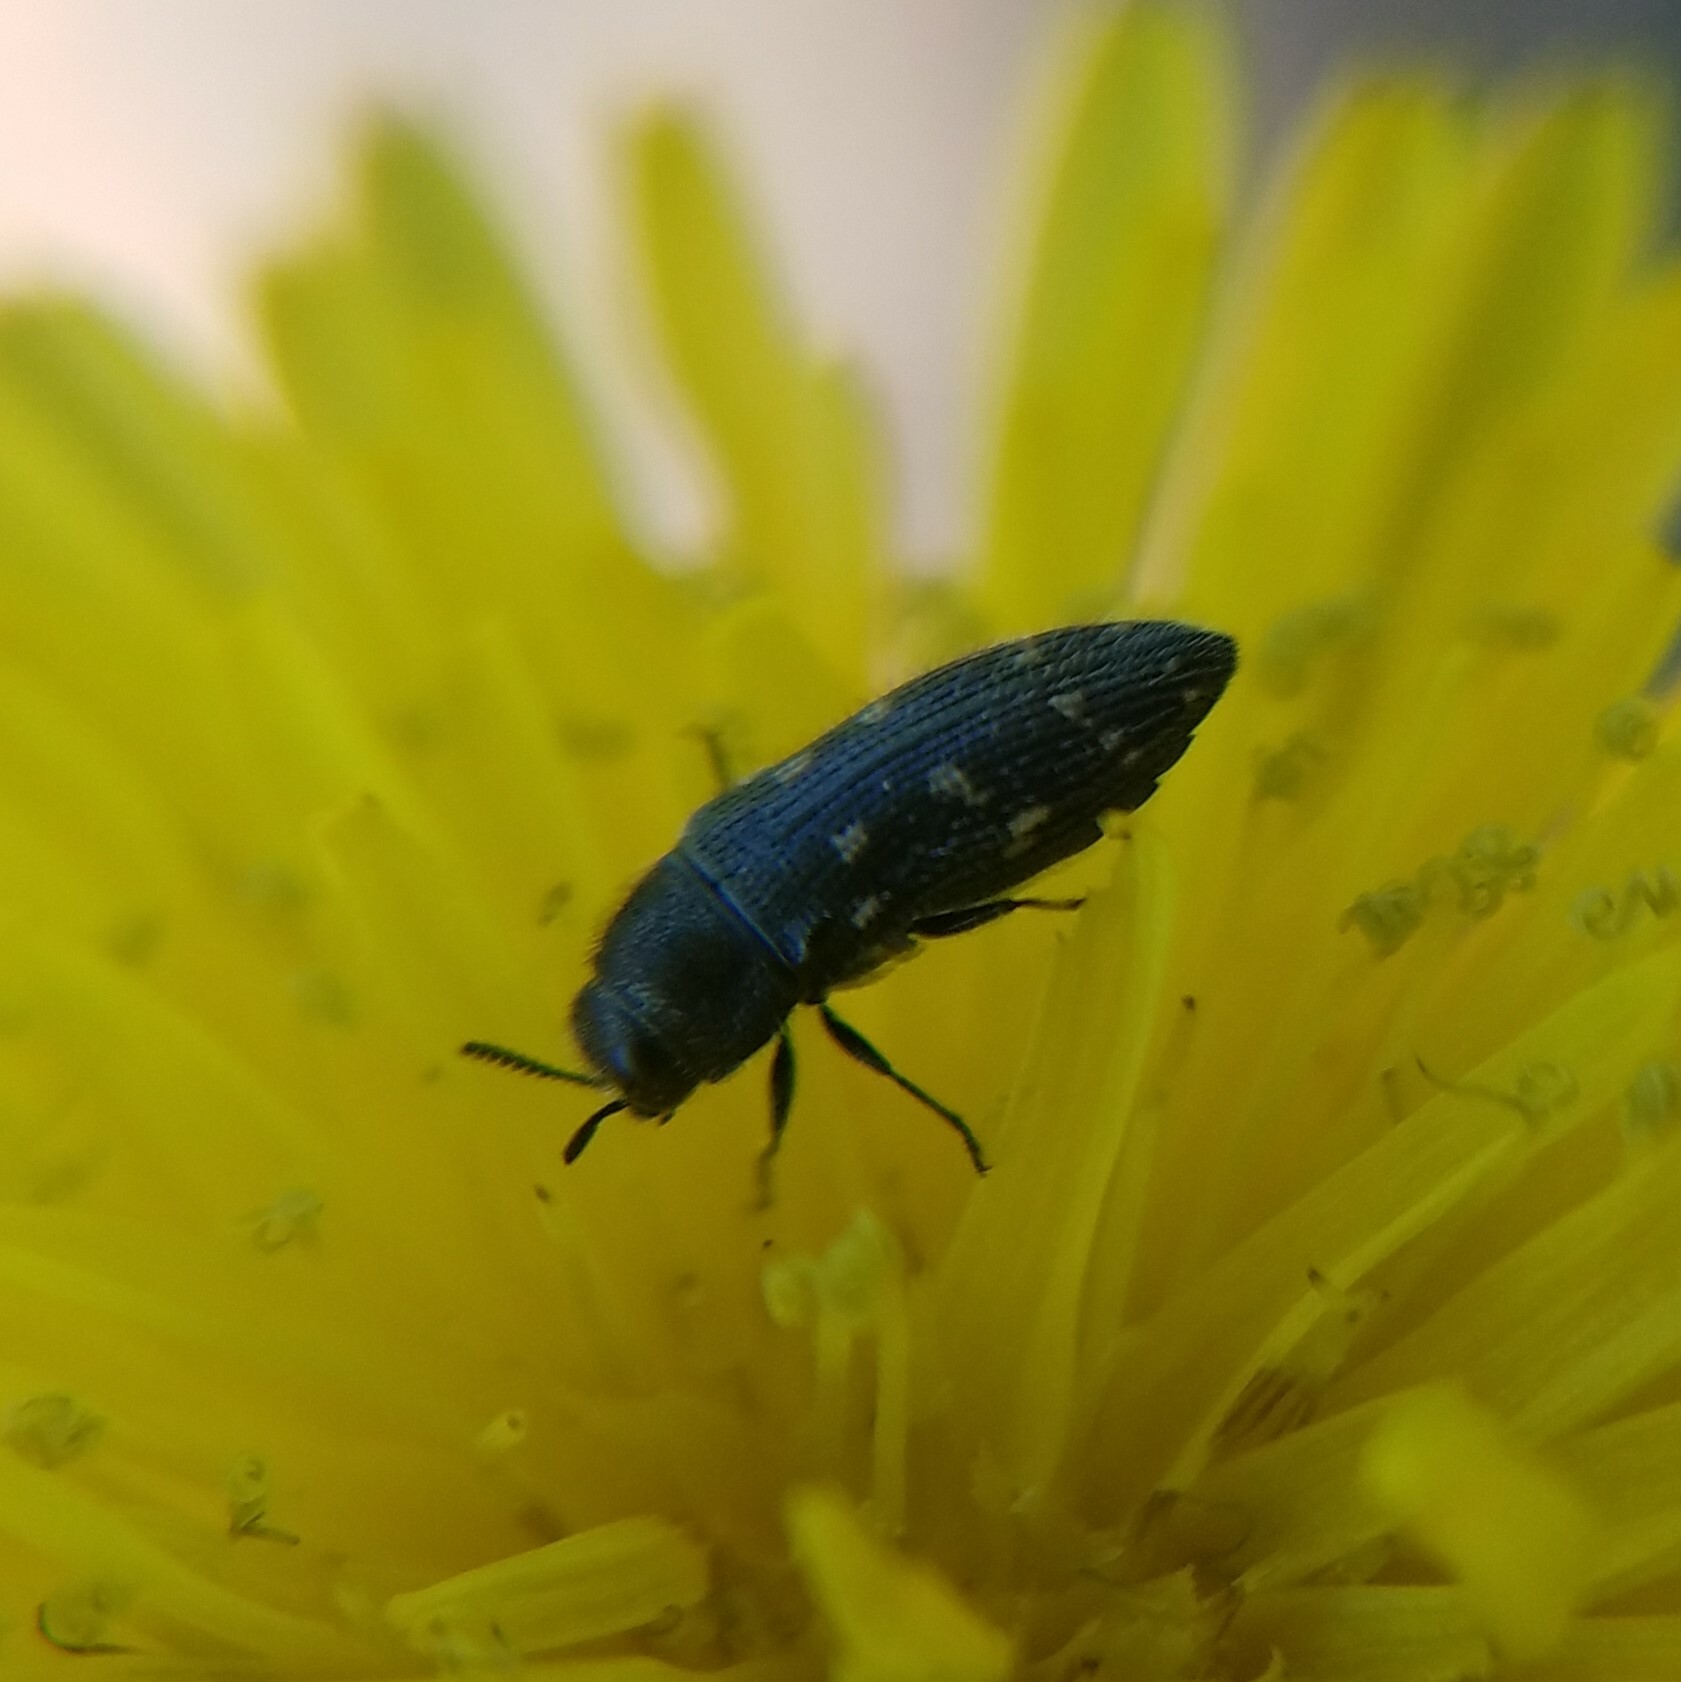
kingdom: Animalia
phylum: Arthropoda
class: Insecta
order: Coleoptera
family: Buprestidae
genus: Acmaeodera
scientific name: Acmaeodera tubulus
